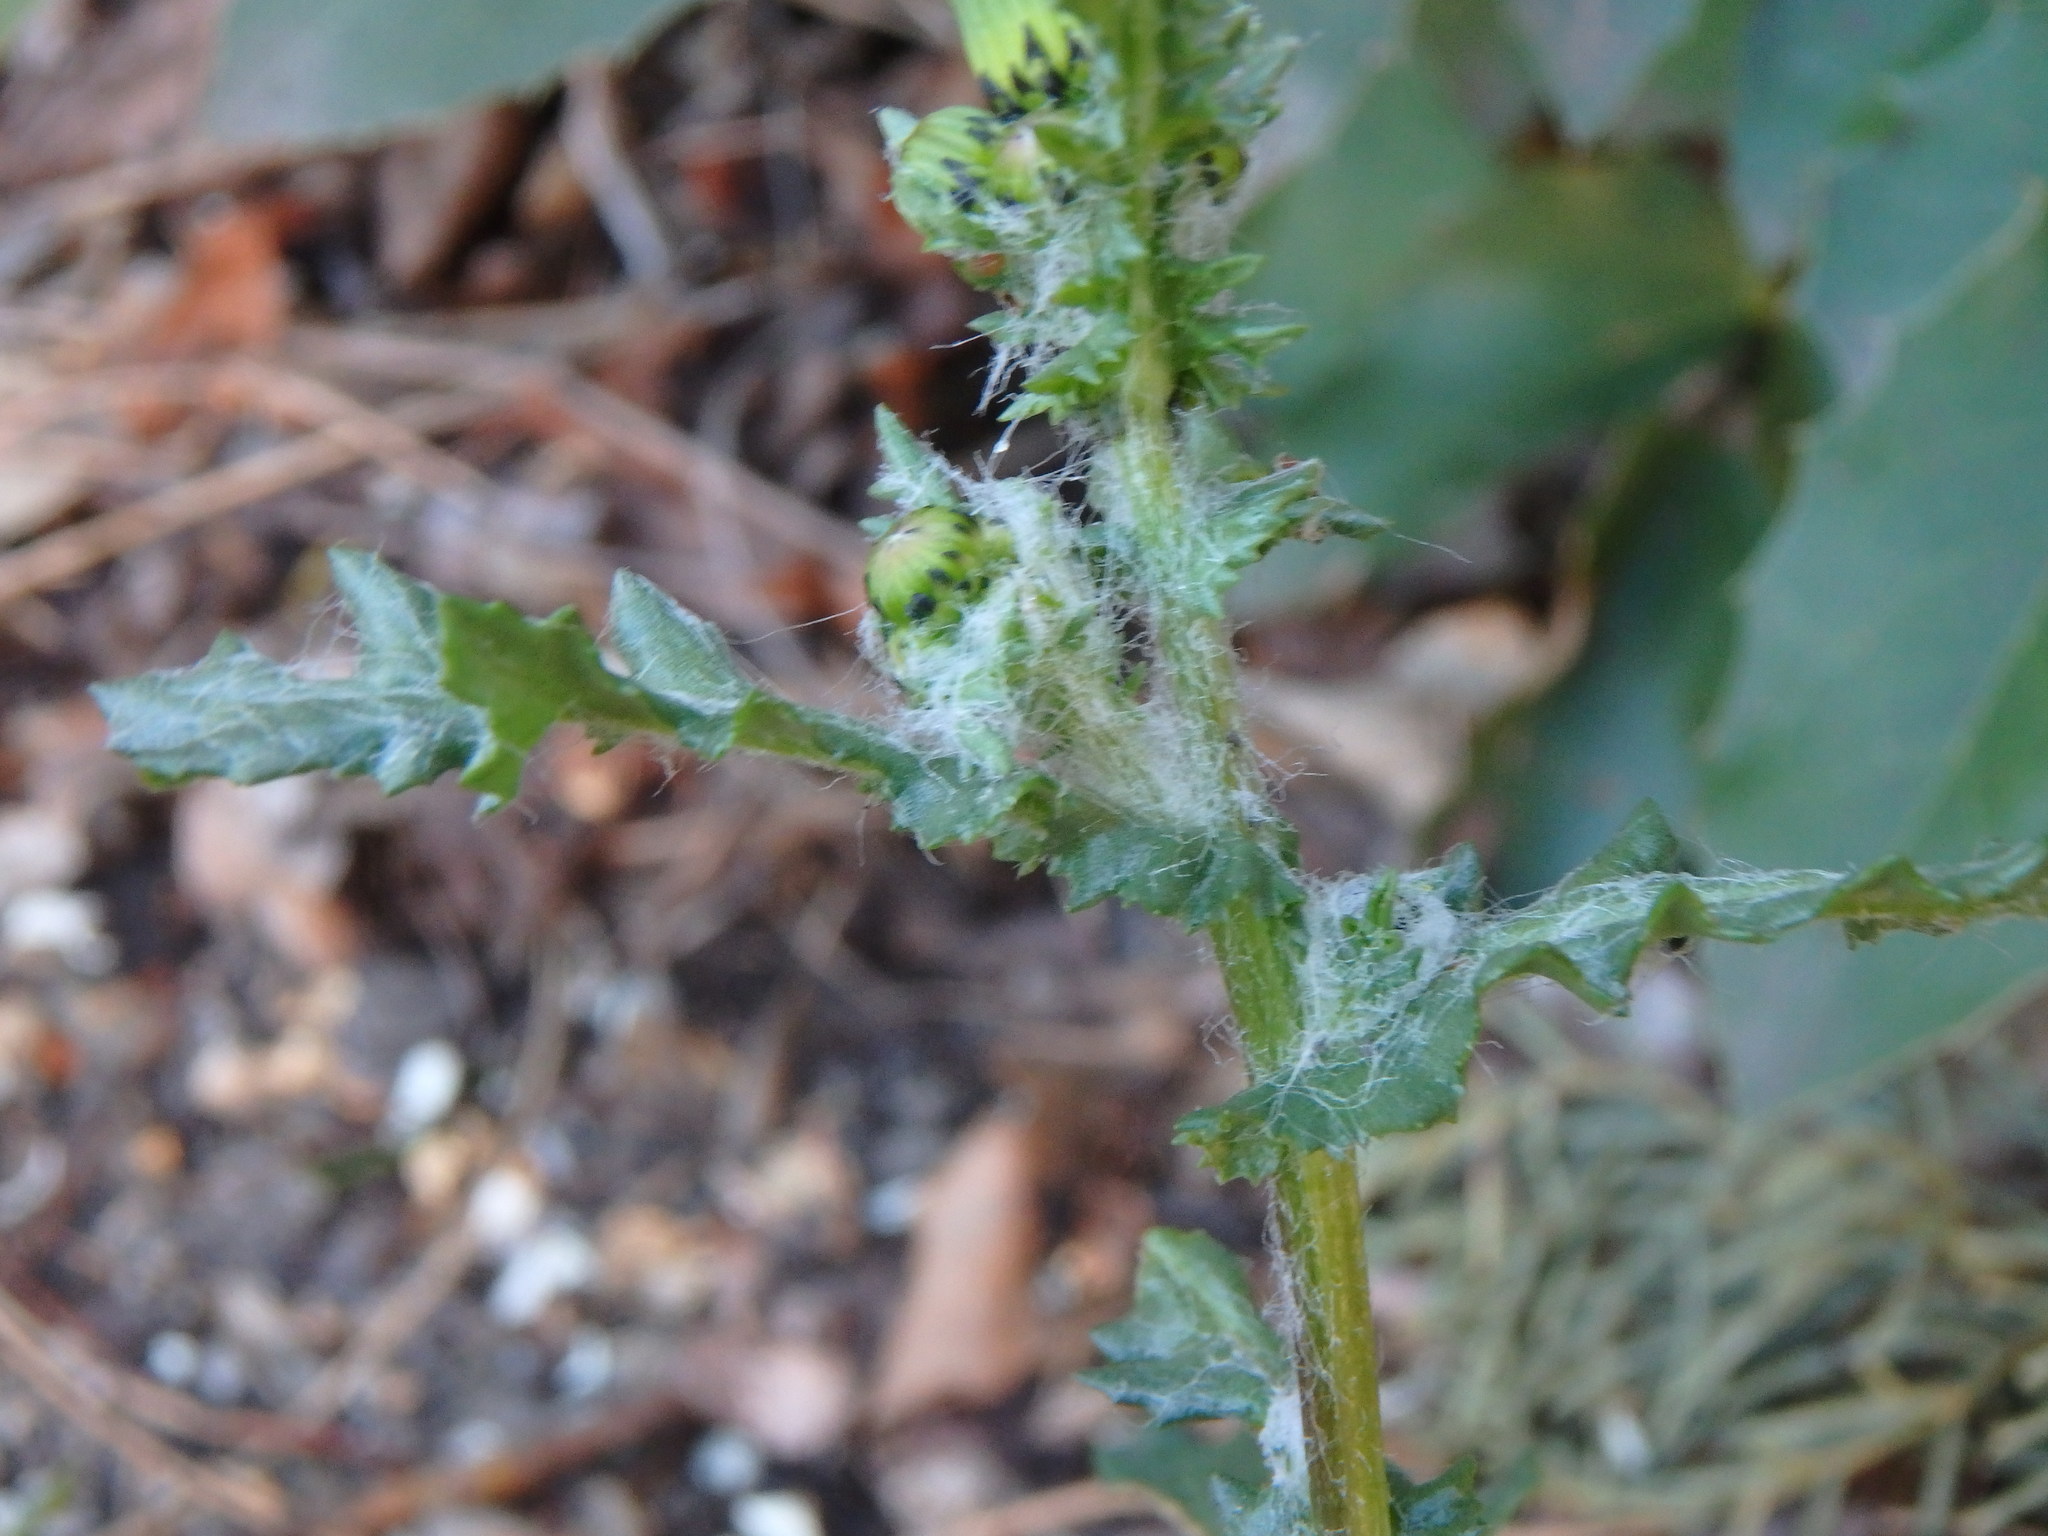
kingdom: Plantae
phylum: Tracheophyta
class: Magnoliopsida
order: Asterales
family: Asteraceae
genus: Senecio
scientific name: Senecio vulgaris
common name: Old-man-in-the-spring
